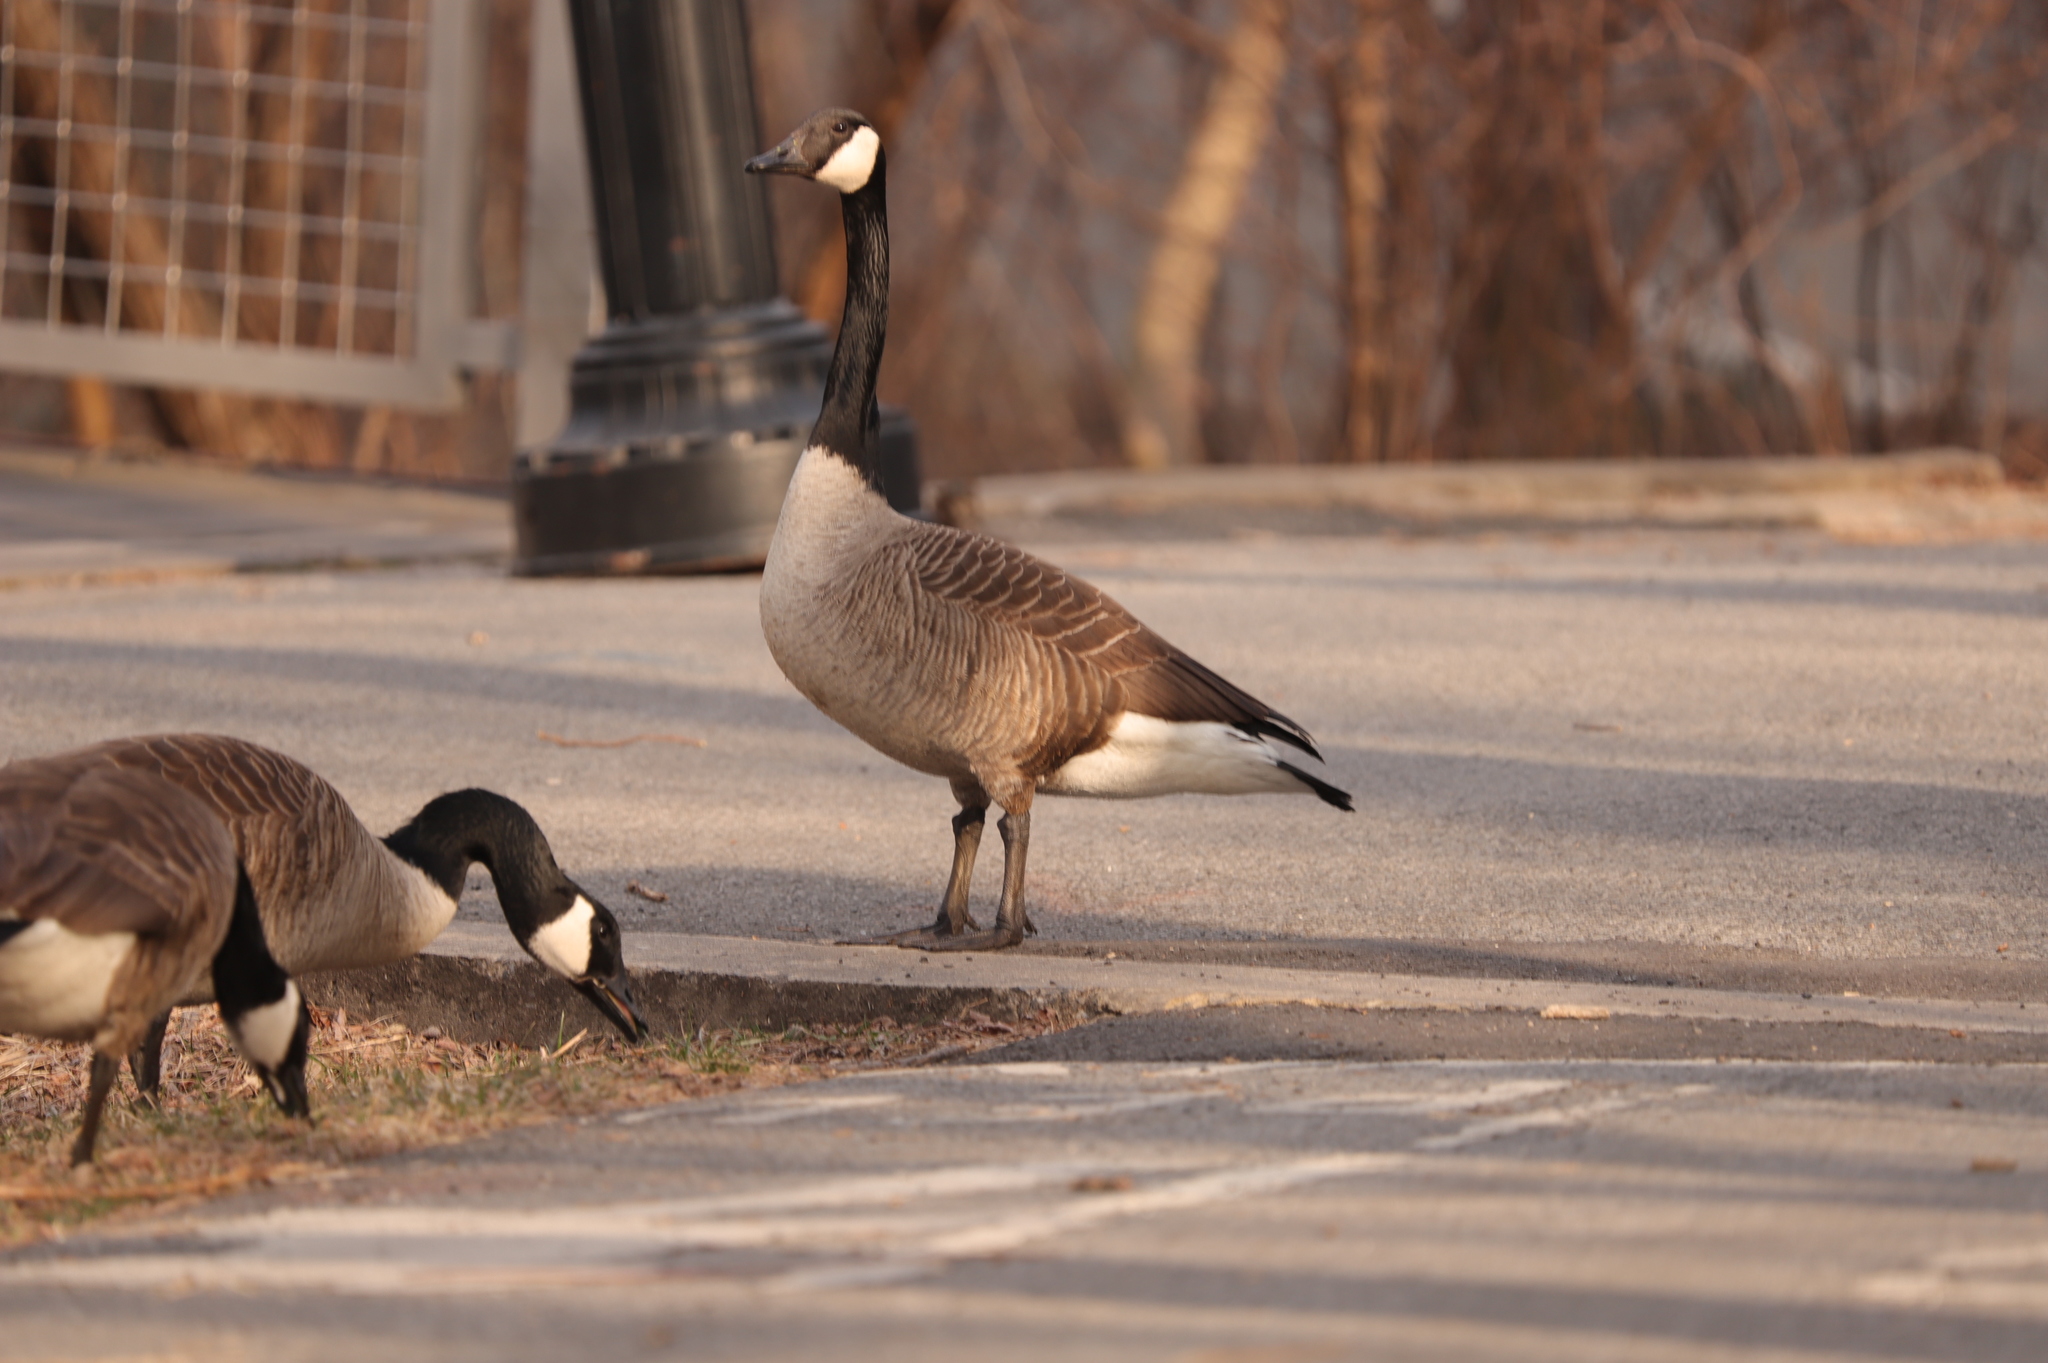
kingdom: Animalia
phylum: Chordata
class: Aves
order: Anseriformes
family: Anatidae
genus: Branta
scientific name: Branta canadensis
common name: Canada goose
